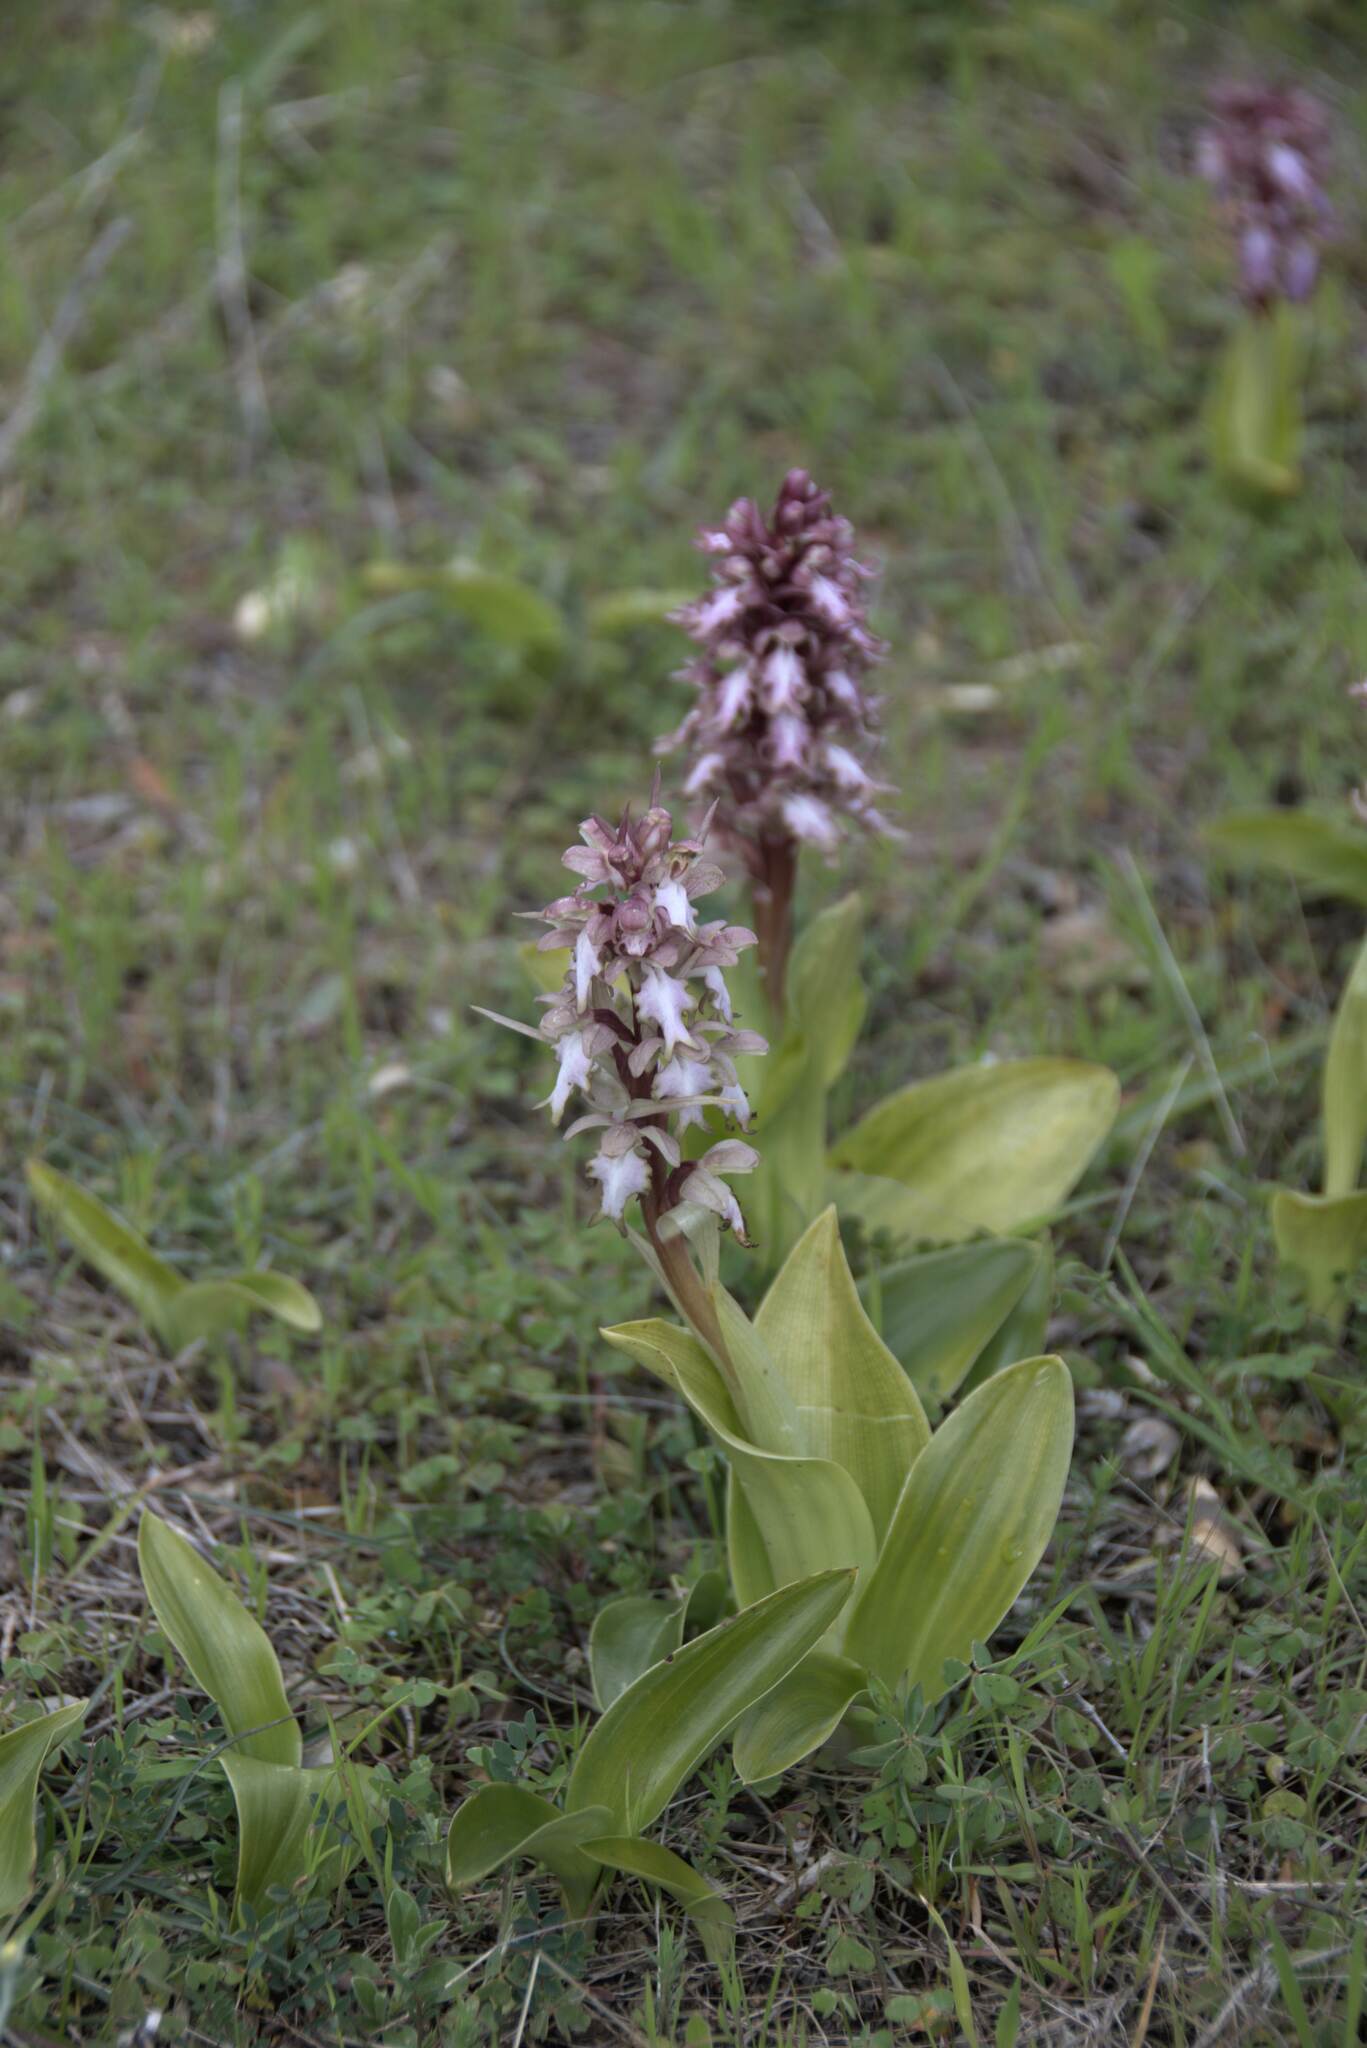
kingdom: Plantae
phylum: Tracheophyta
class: Liliopsida
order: Asparagales
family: Orchidaceae
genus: Himantoglossum
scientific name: Himantoglossum robertianum
